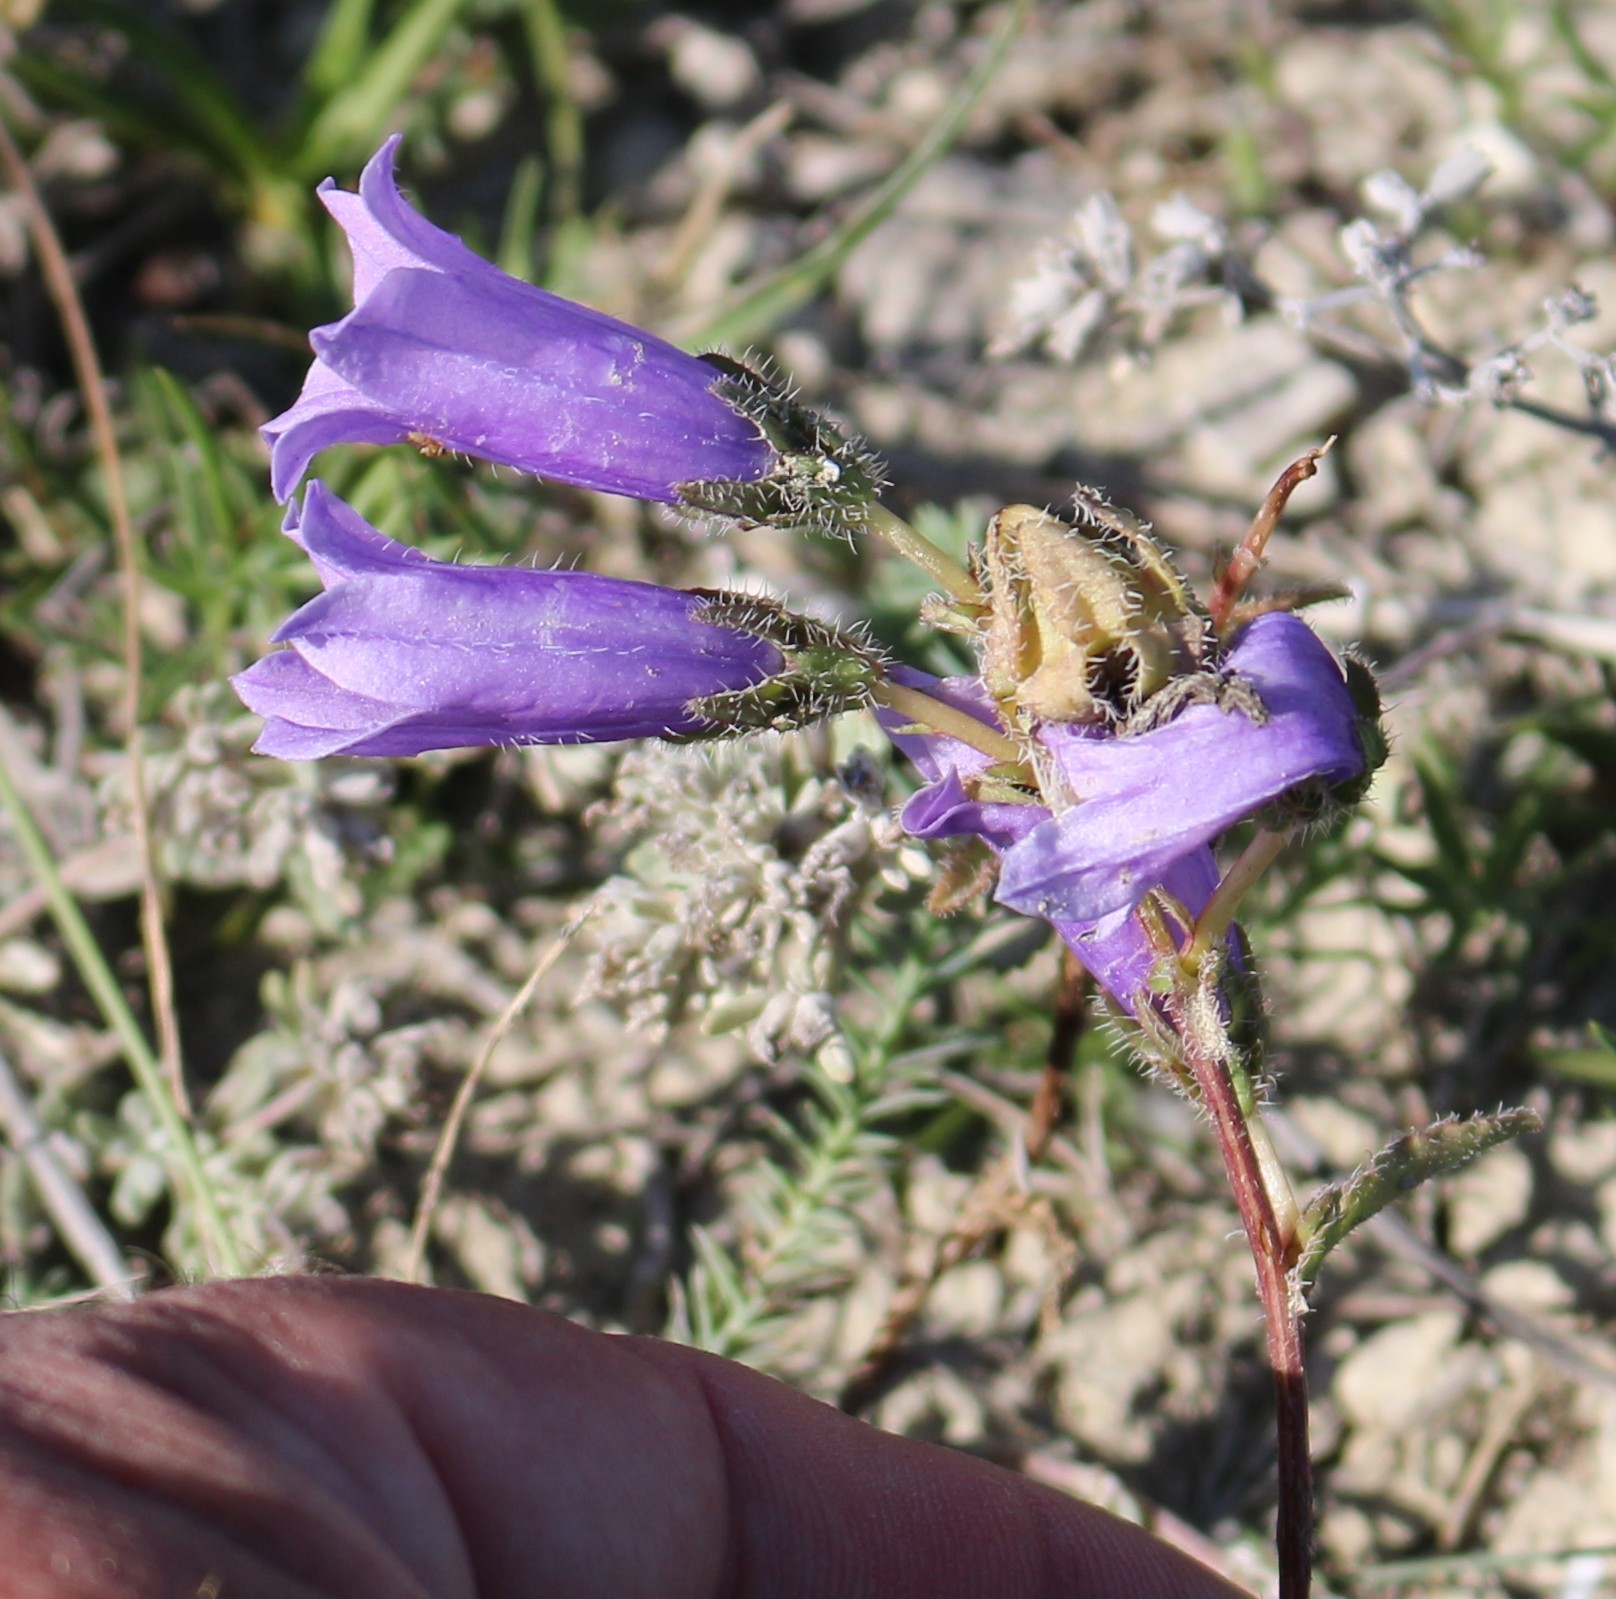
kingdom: Plantae
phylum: Tracheophyta
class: Magnoliopsida
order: Asterales
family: Campanulaceae
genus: Campanula
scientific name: Campanula komarovii
